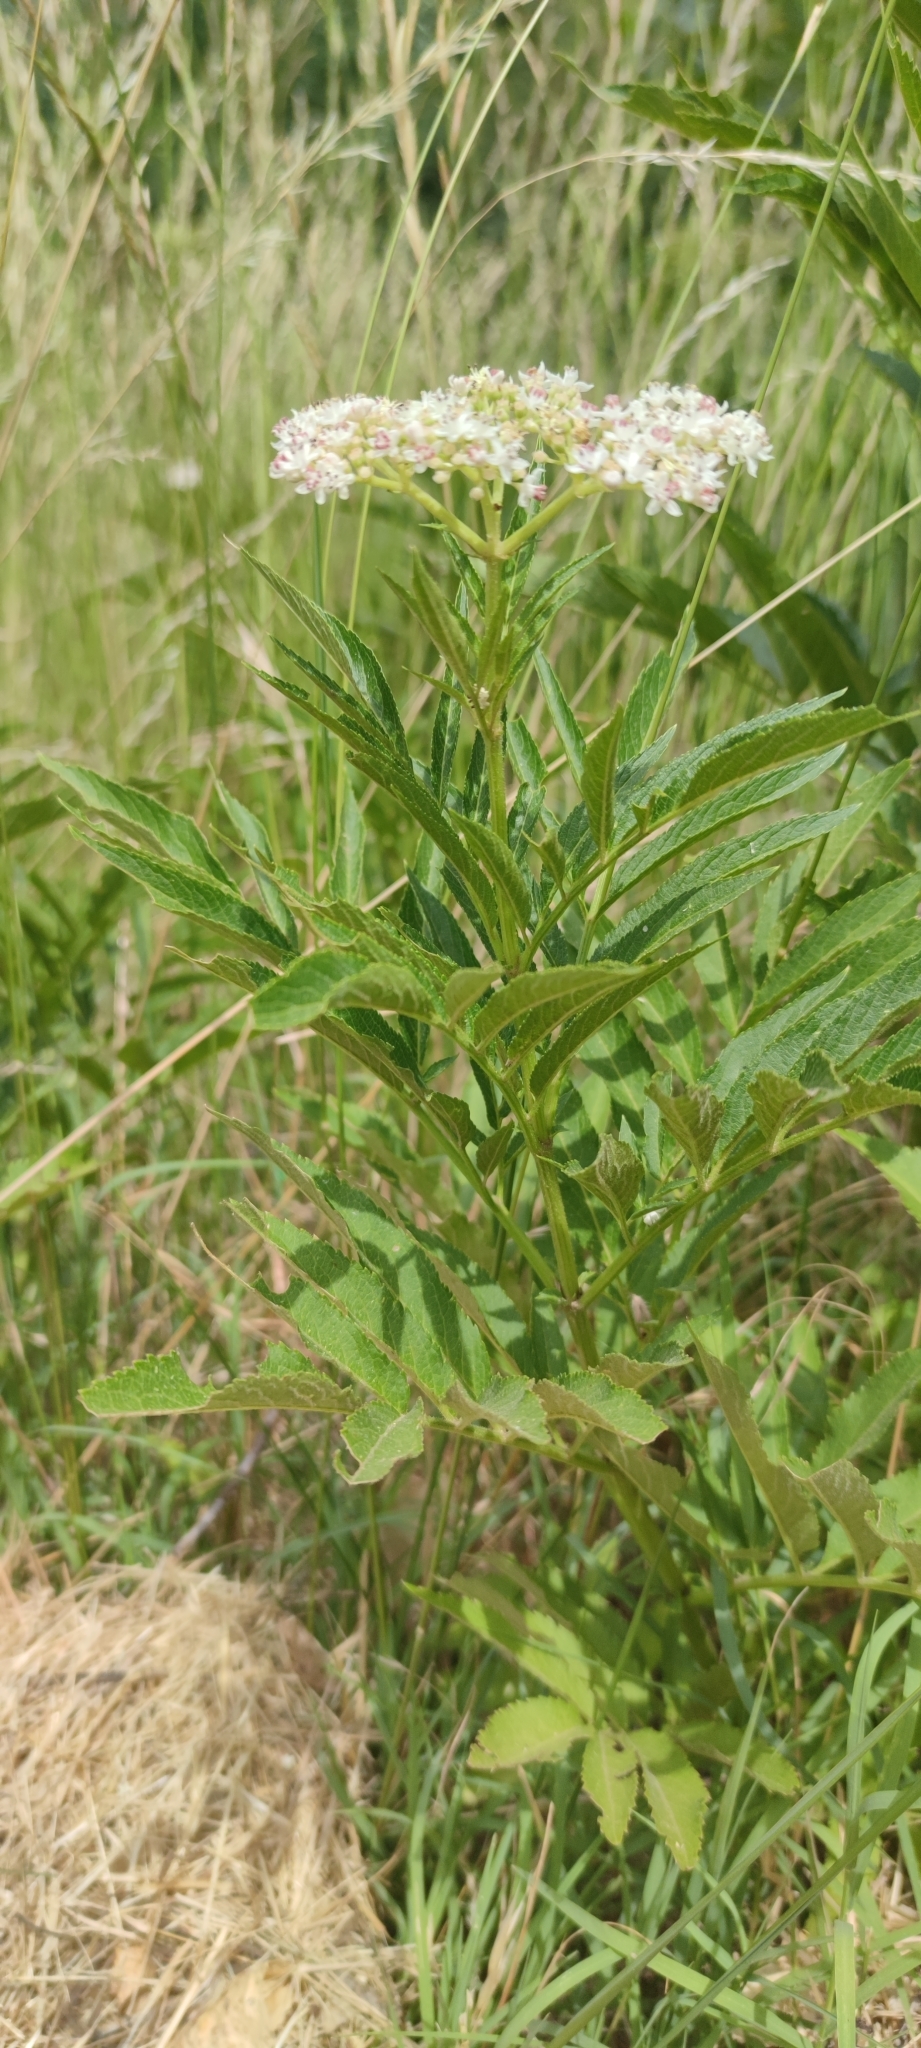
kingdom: Plantae
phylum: Tracheophyta
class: Magnoliopsida
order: Dipsacales
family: Viburnaceae
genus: Sambucus
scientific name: Sambucus ebulus
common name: Dwarf elder
